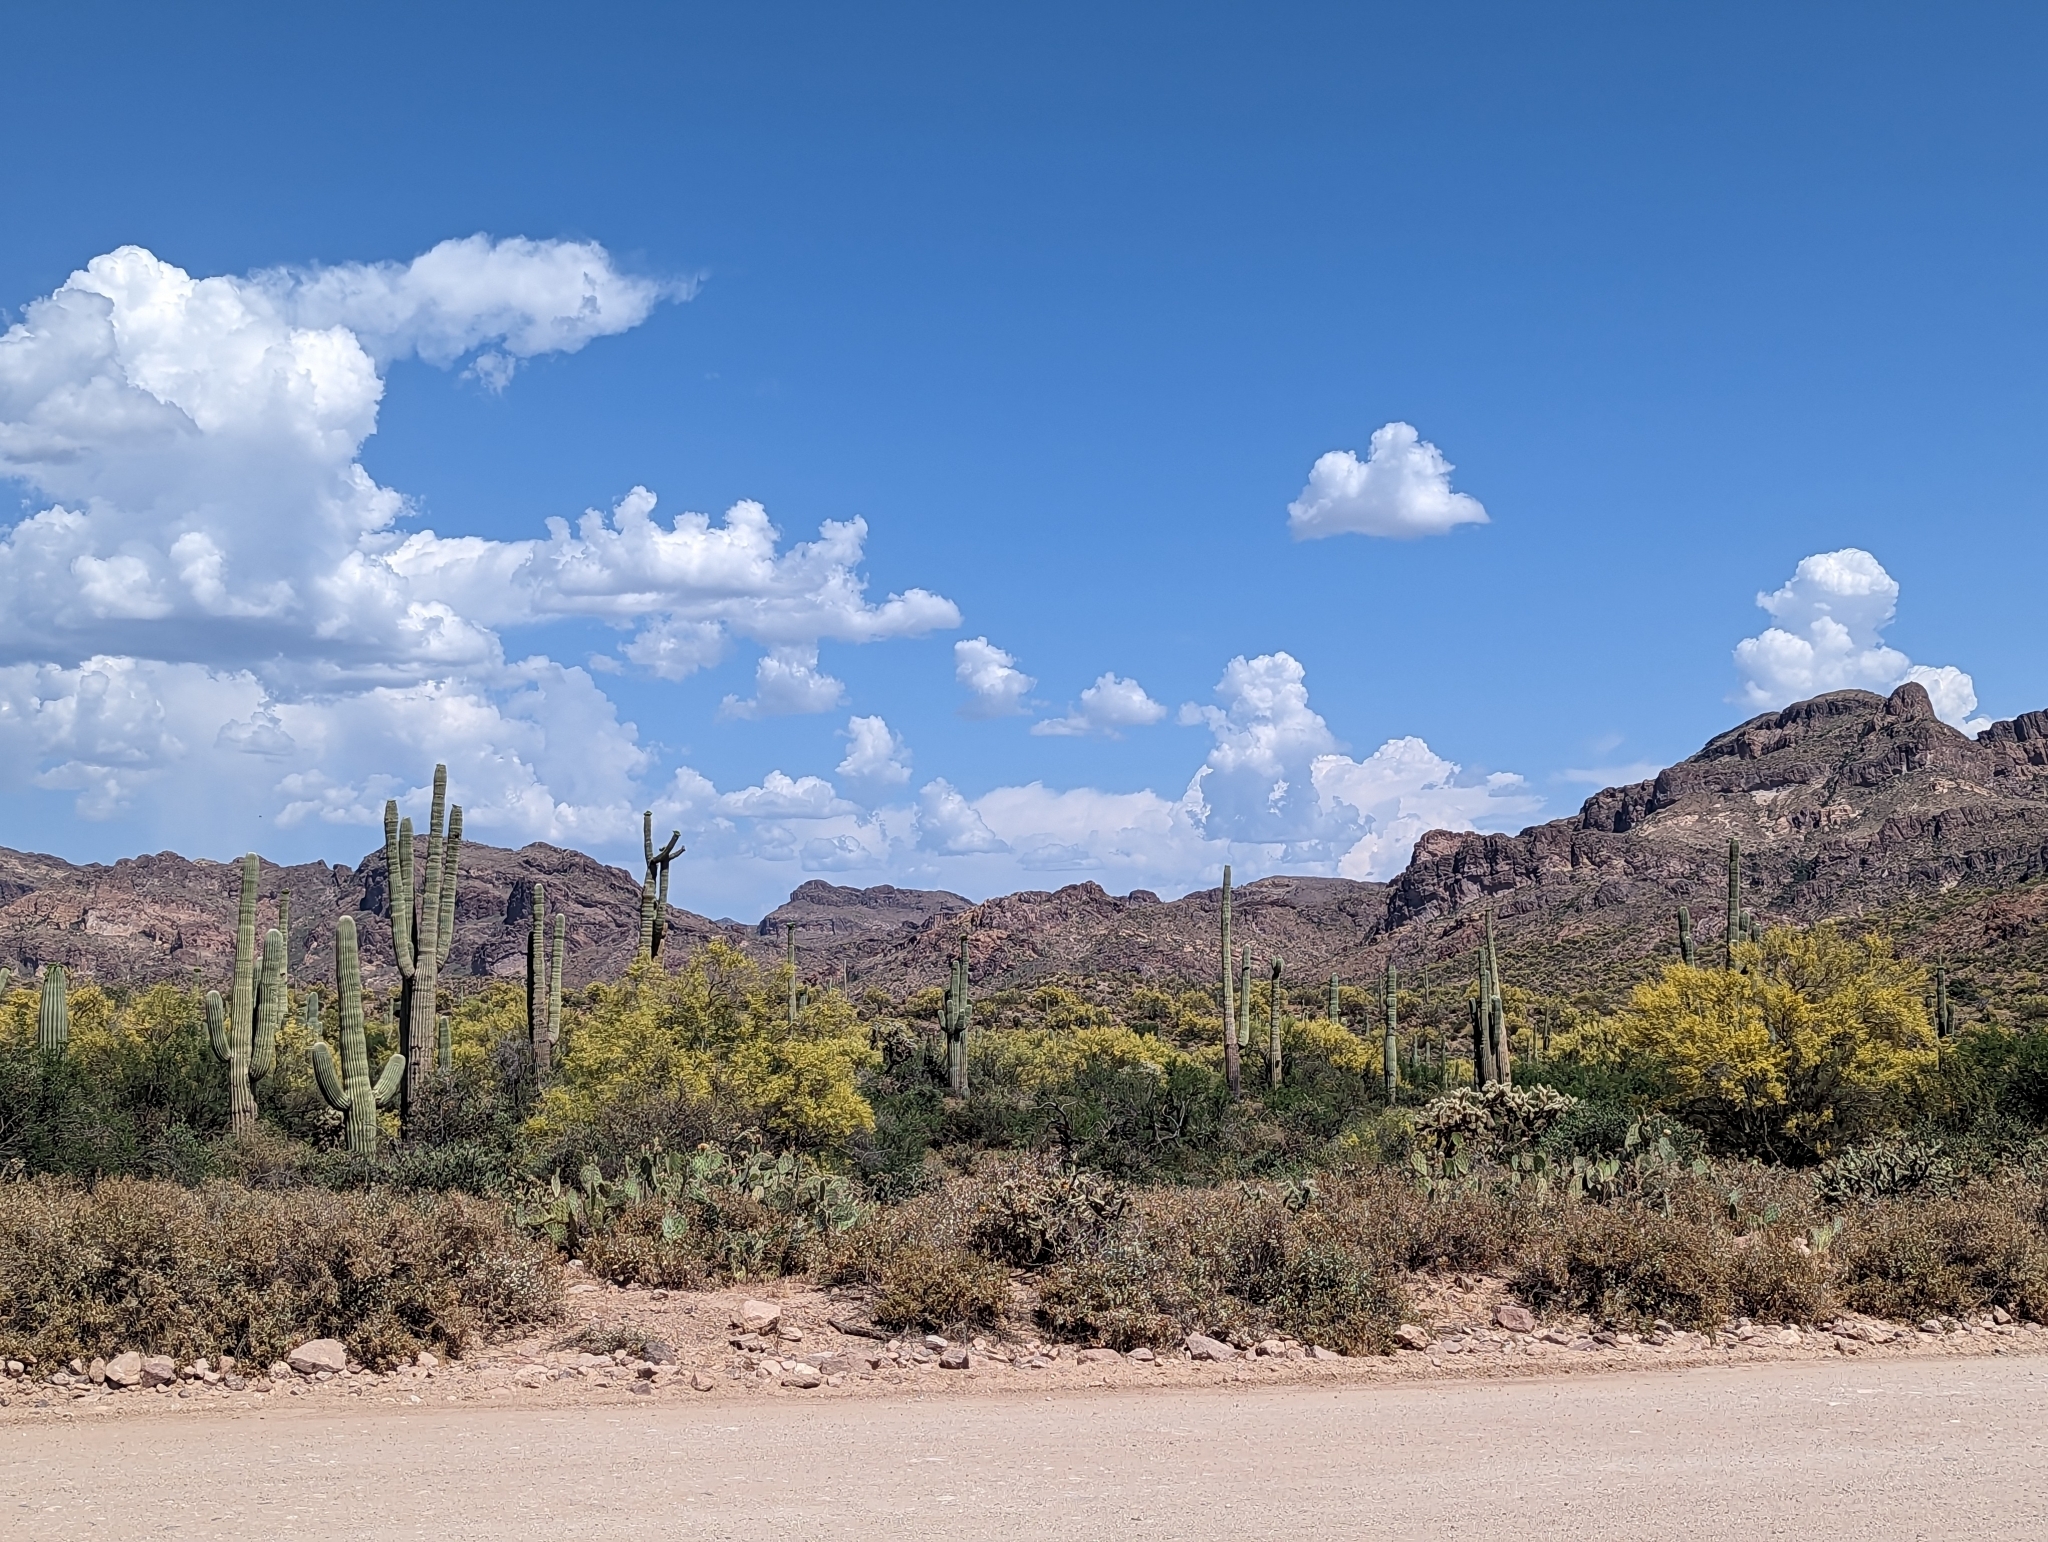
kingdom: Plantae
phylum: Tracheophyta
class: Magnoliopsida
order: Caryophyllales
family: Cactaceae
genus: Carnegiea
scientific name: Carnegiea gigantea
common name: Saguaro
